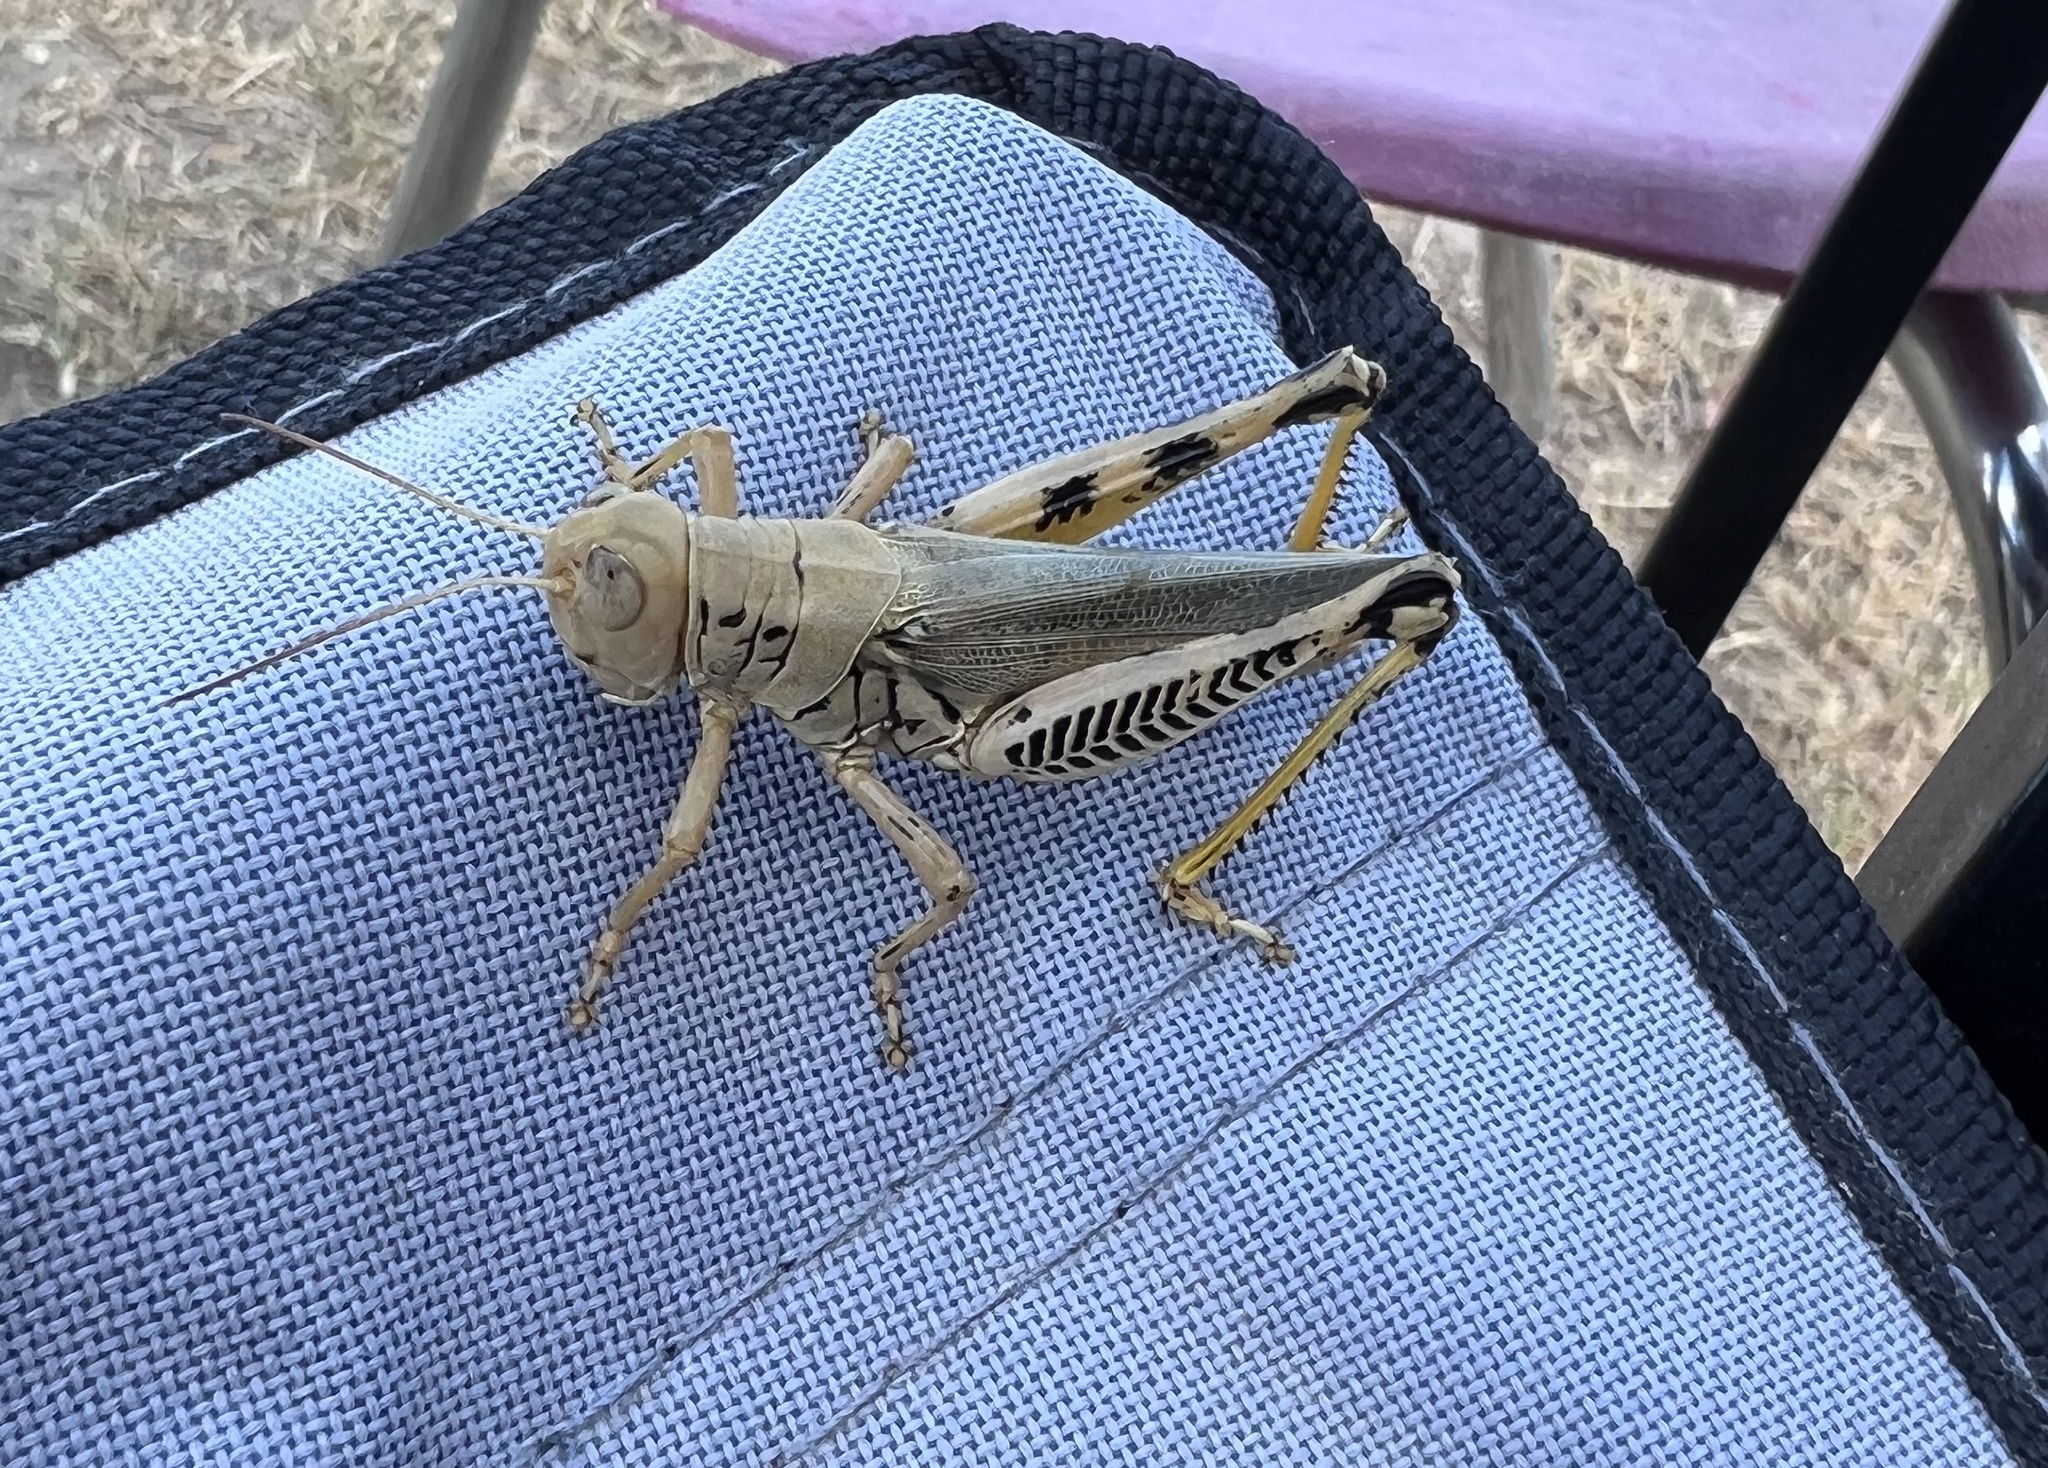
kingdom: Animalia
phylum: Arthropoda
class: Insecta
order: Orthoptera
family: Acrididae
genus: Melanoplus
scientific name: Melanoplus differentialis
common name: Differential grasshopper
